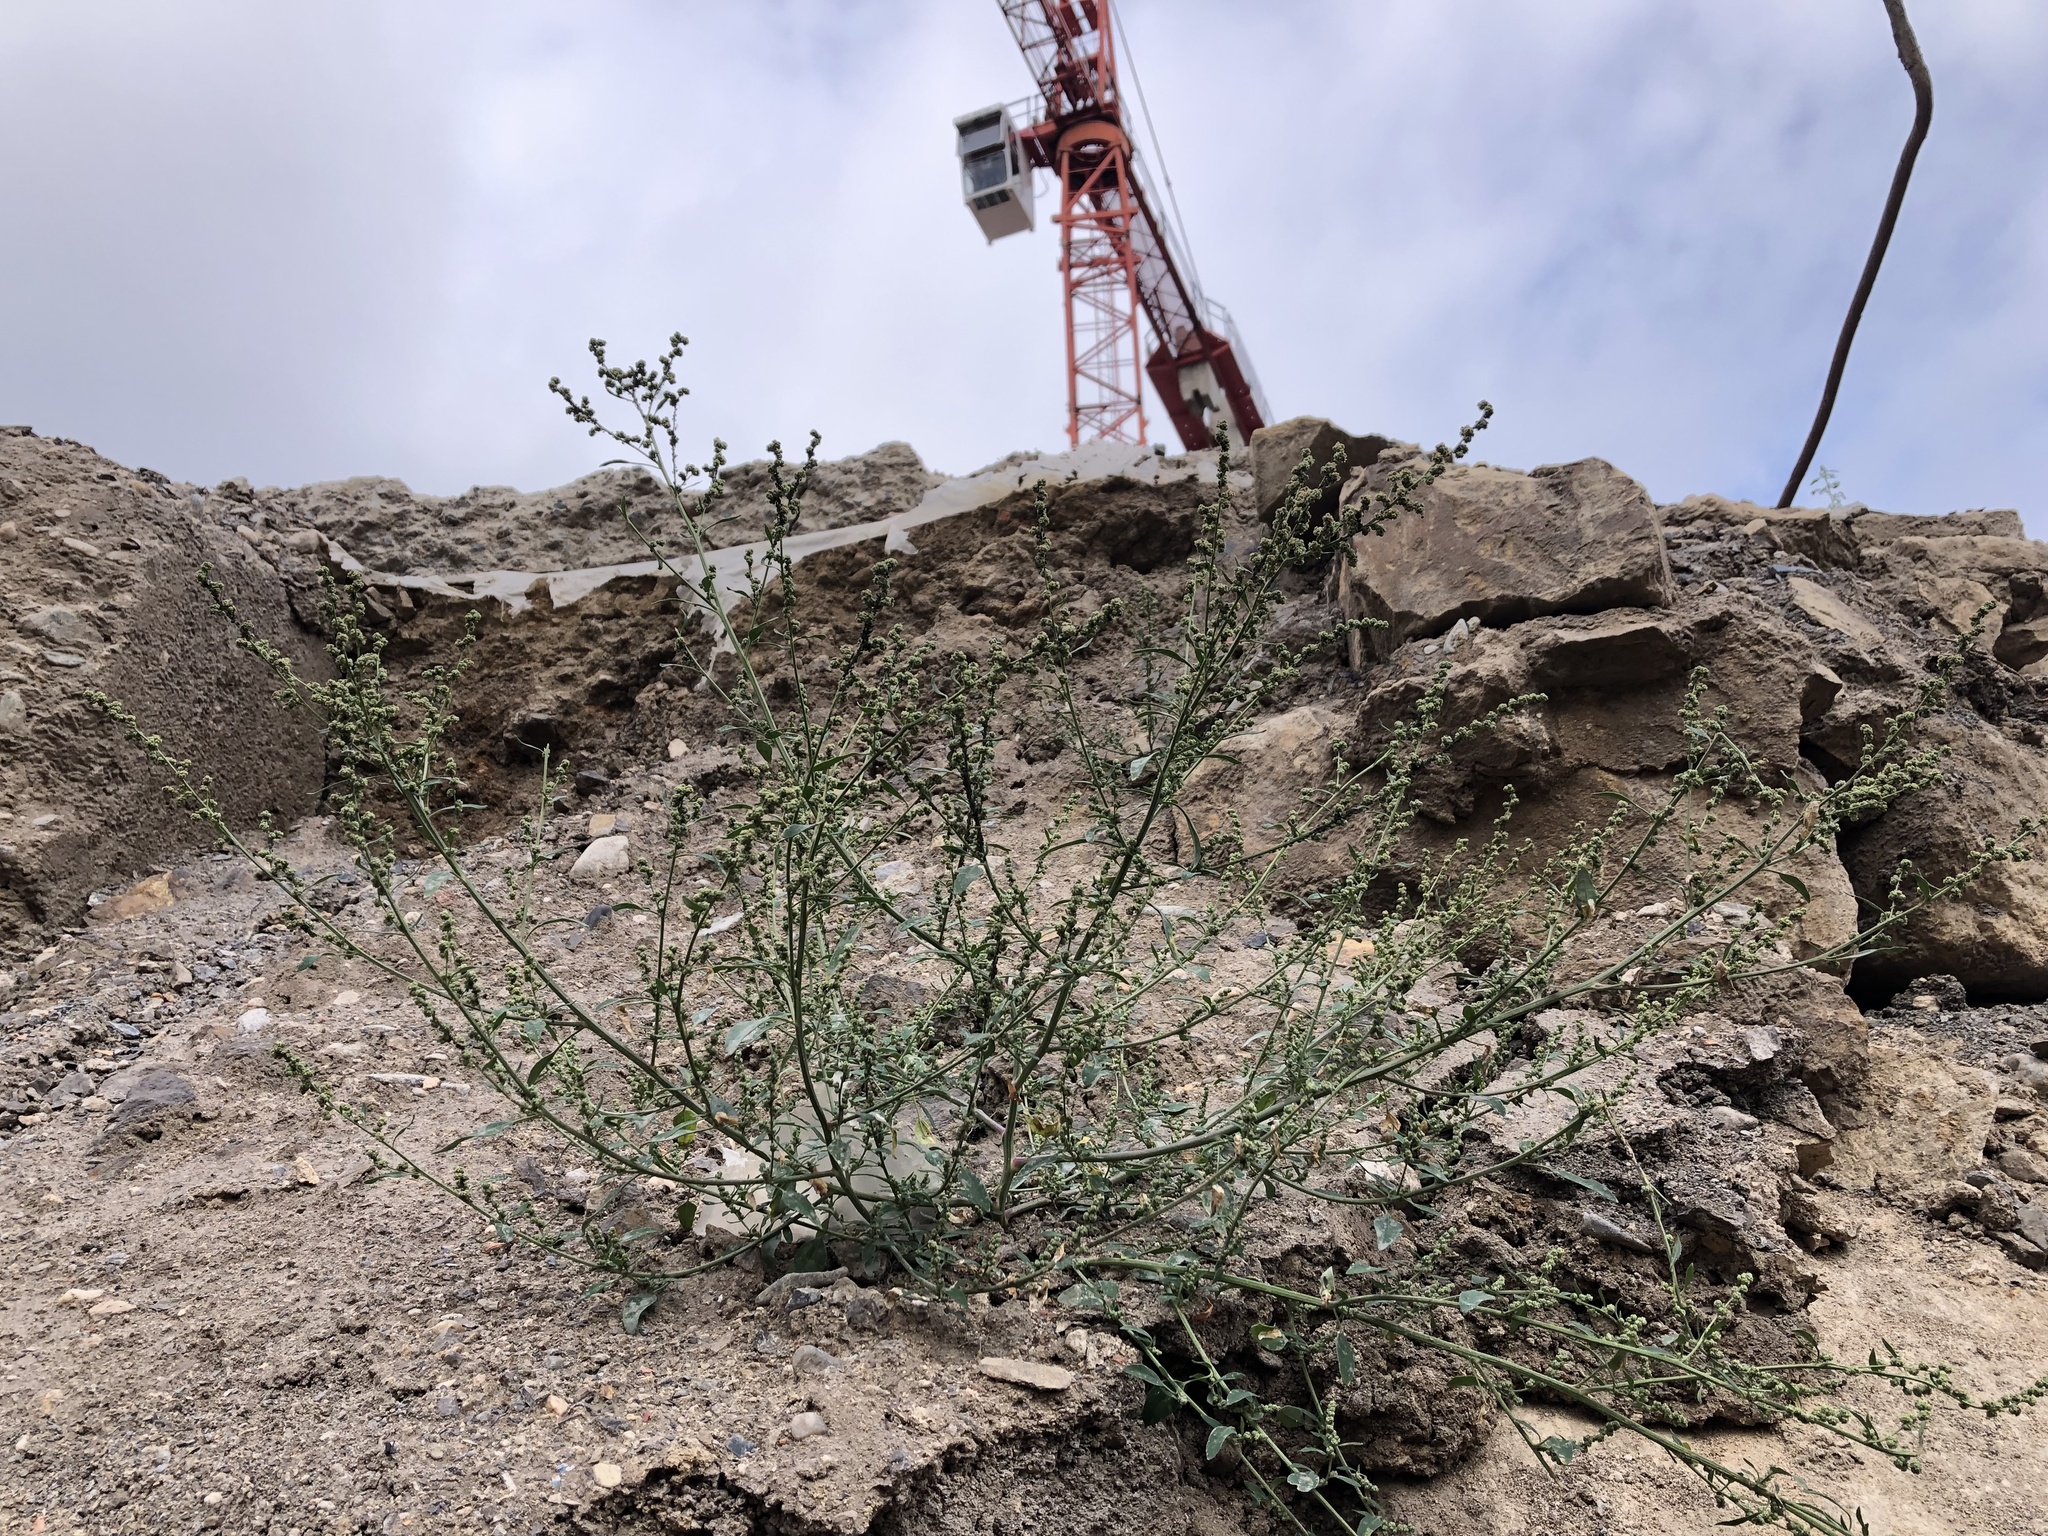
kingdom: Plantae
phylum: Tracheophyta
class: Magnoliopsida
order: Caryophyllales
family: Amaranthaceae
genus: Chenopodium
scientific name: Chenopodium album
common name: Fat-hen
